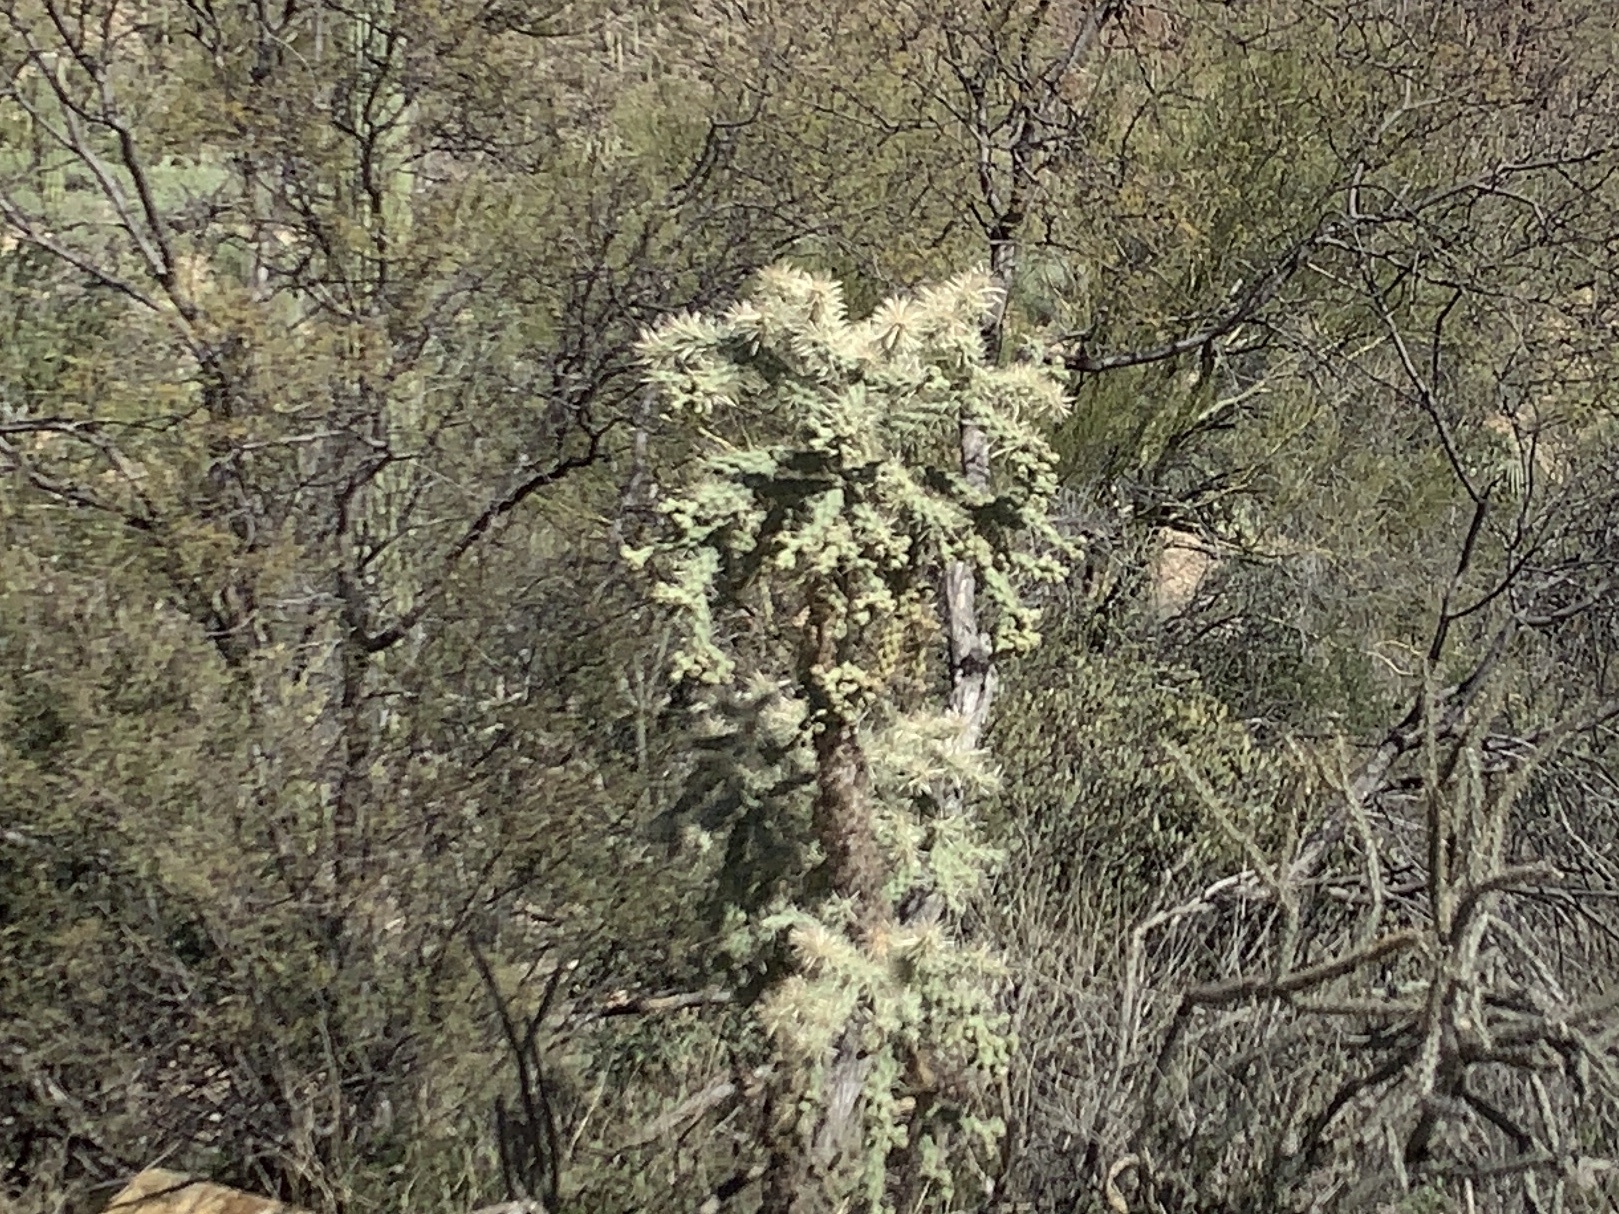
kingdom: Plantae
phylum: Tracheophyta
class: Magnoliopsida
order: Caryophyllales
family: Cactaceae
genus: Cylindropuntia
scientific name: Cylindropuntia fulgida
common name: Jumping cholla
